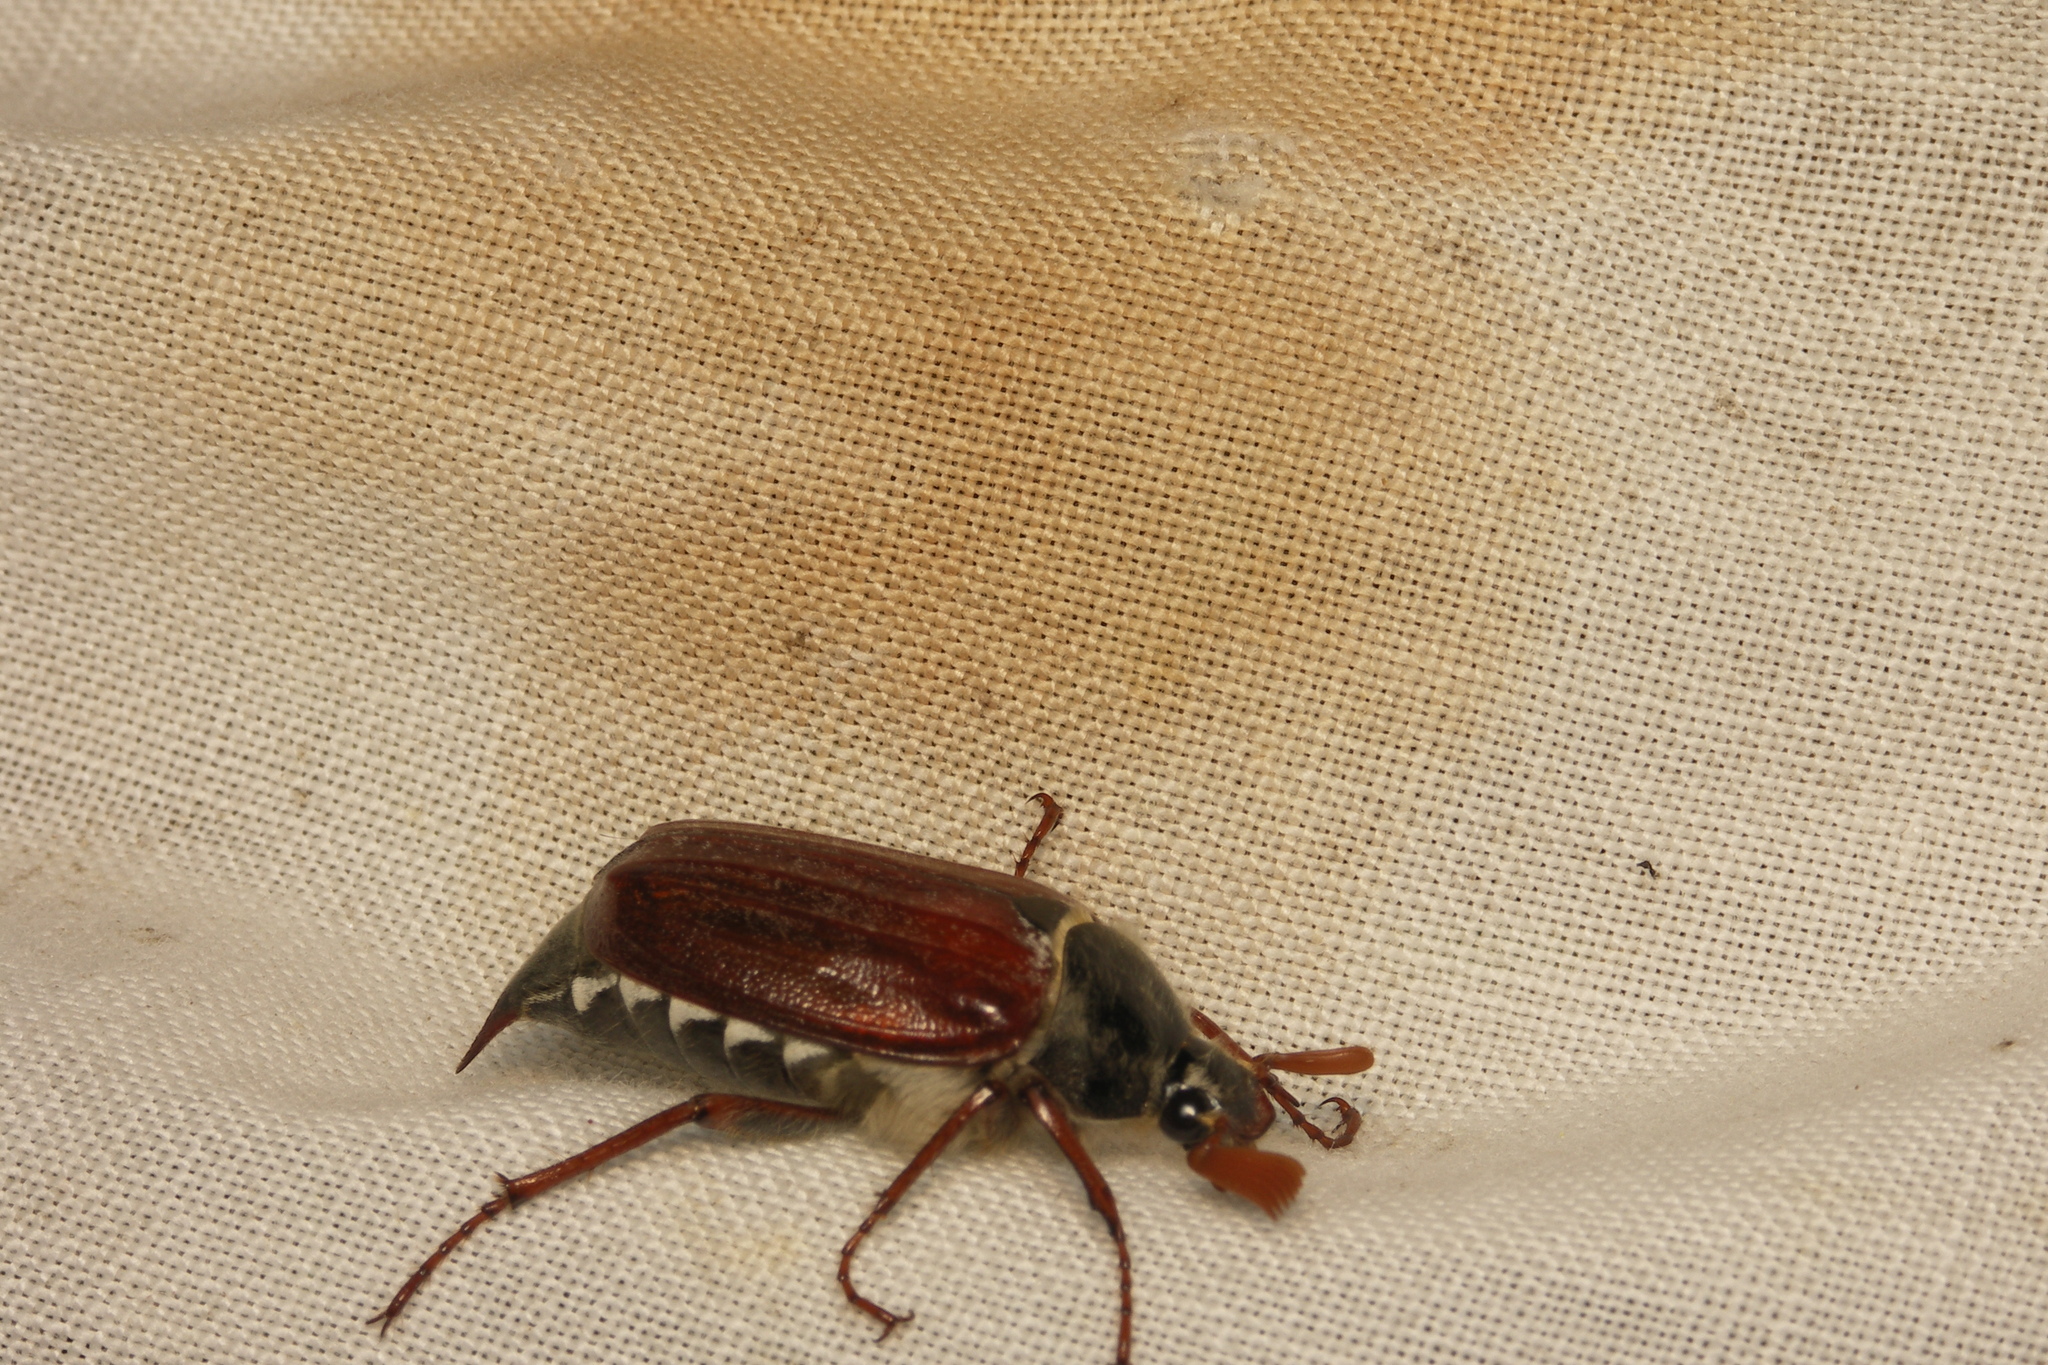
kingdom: Animalia
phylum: Arthropoda
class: Insecta
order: Coleoptera
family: Scarabaeidae
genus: Melolontha
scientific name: Melolontha melolontha
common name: Cockchafer maybeetle
